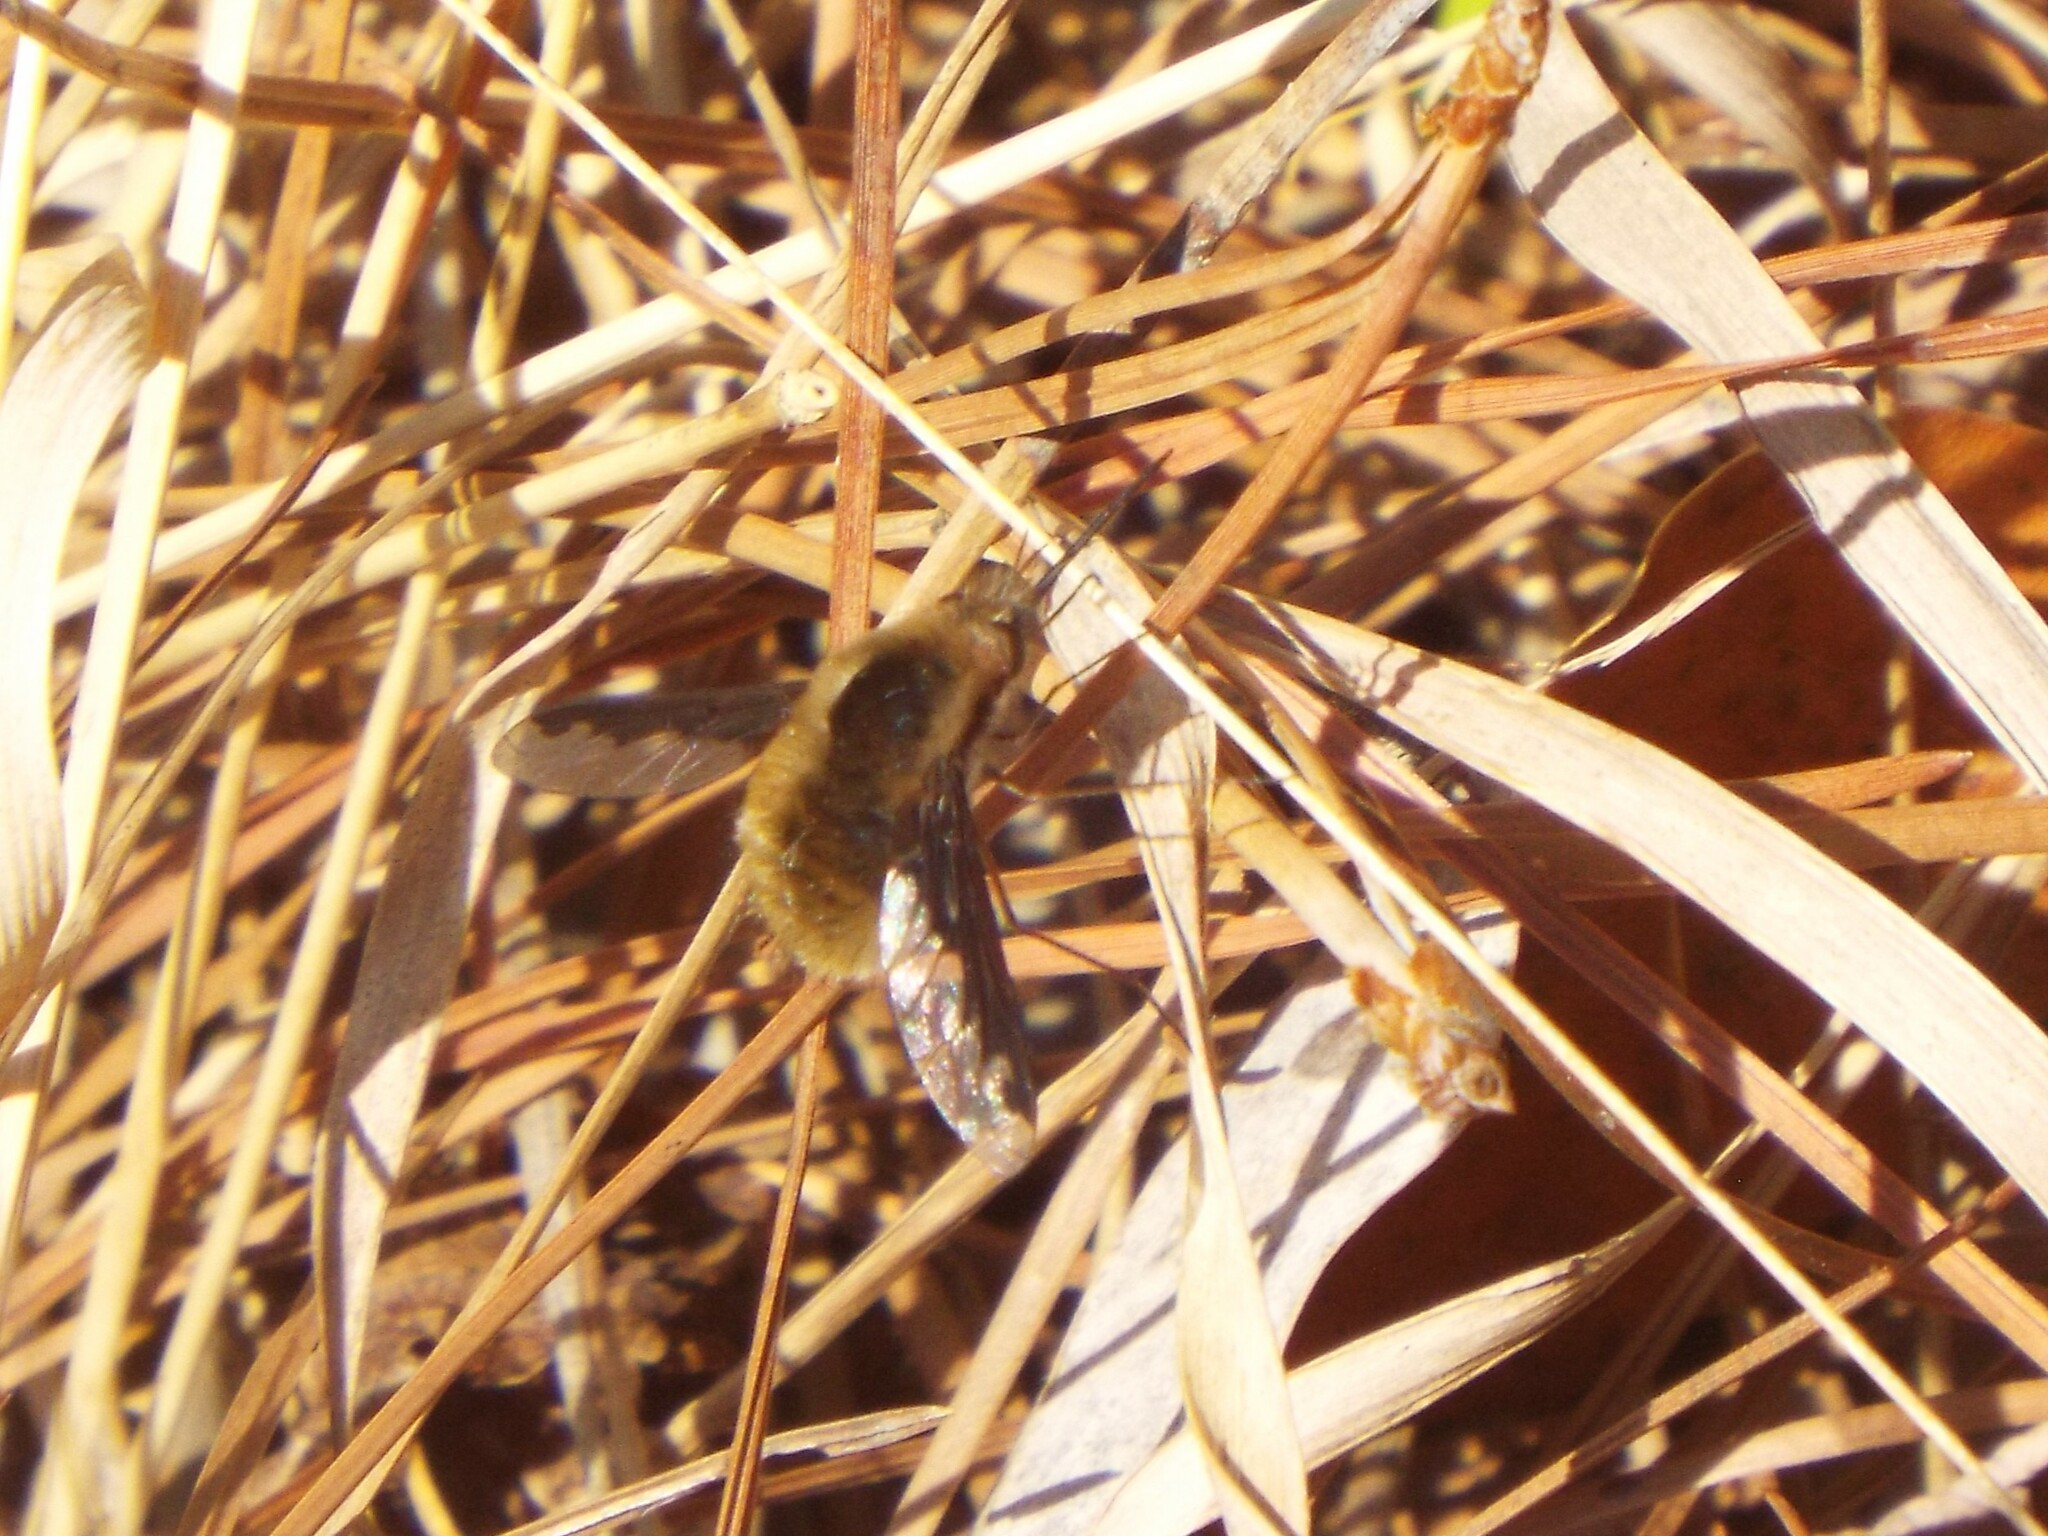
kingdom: Animalia
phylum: Arthropoda
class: Insecta
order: Diptera
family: Bombyliidae
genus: Bombylius
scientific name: Bombylius major
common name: Bee fly
